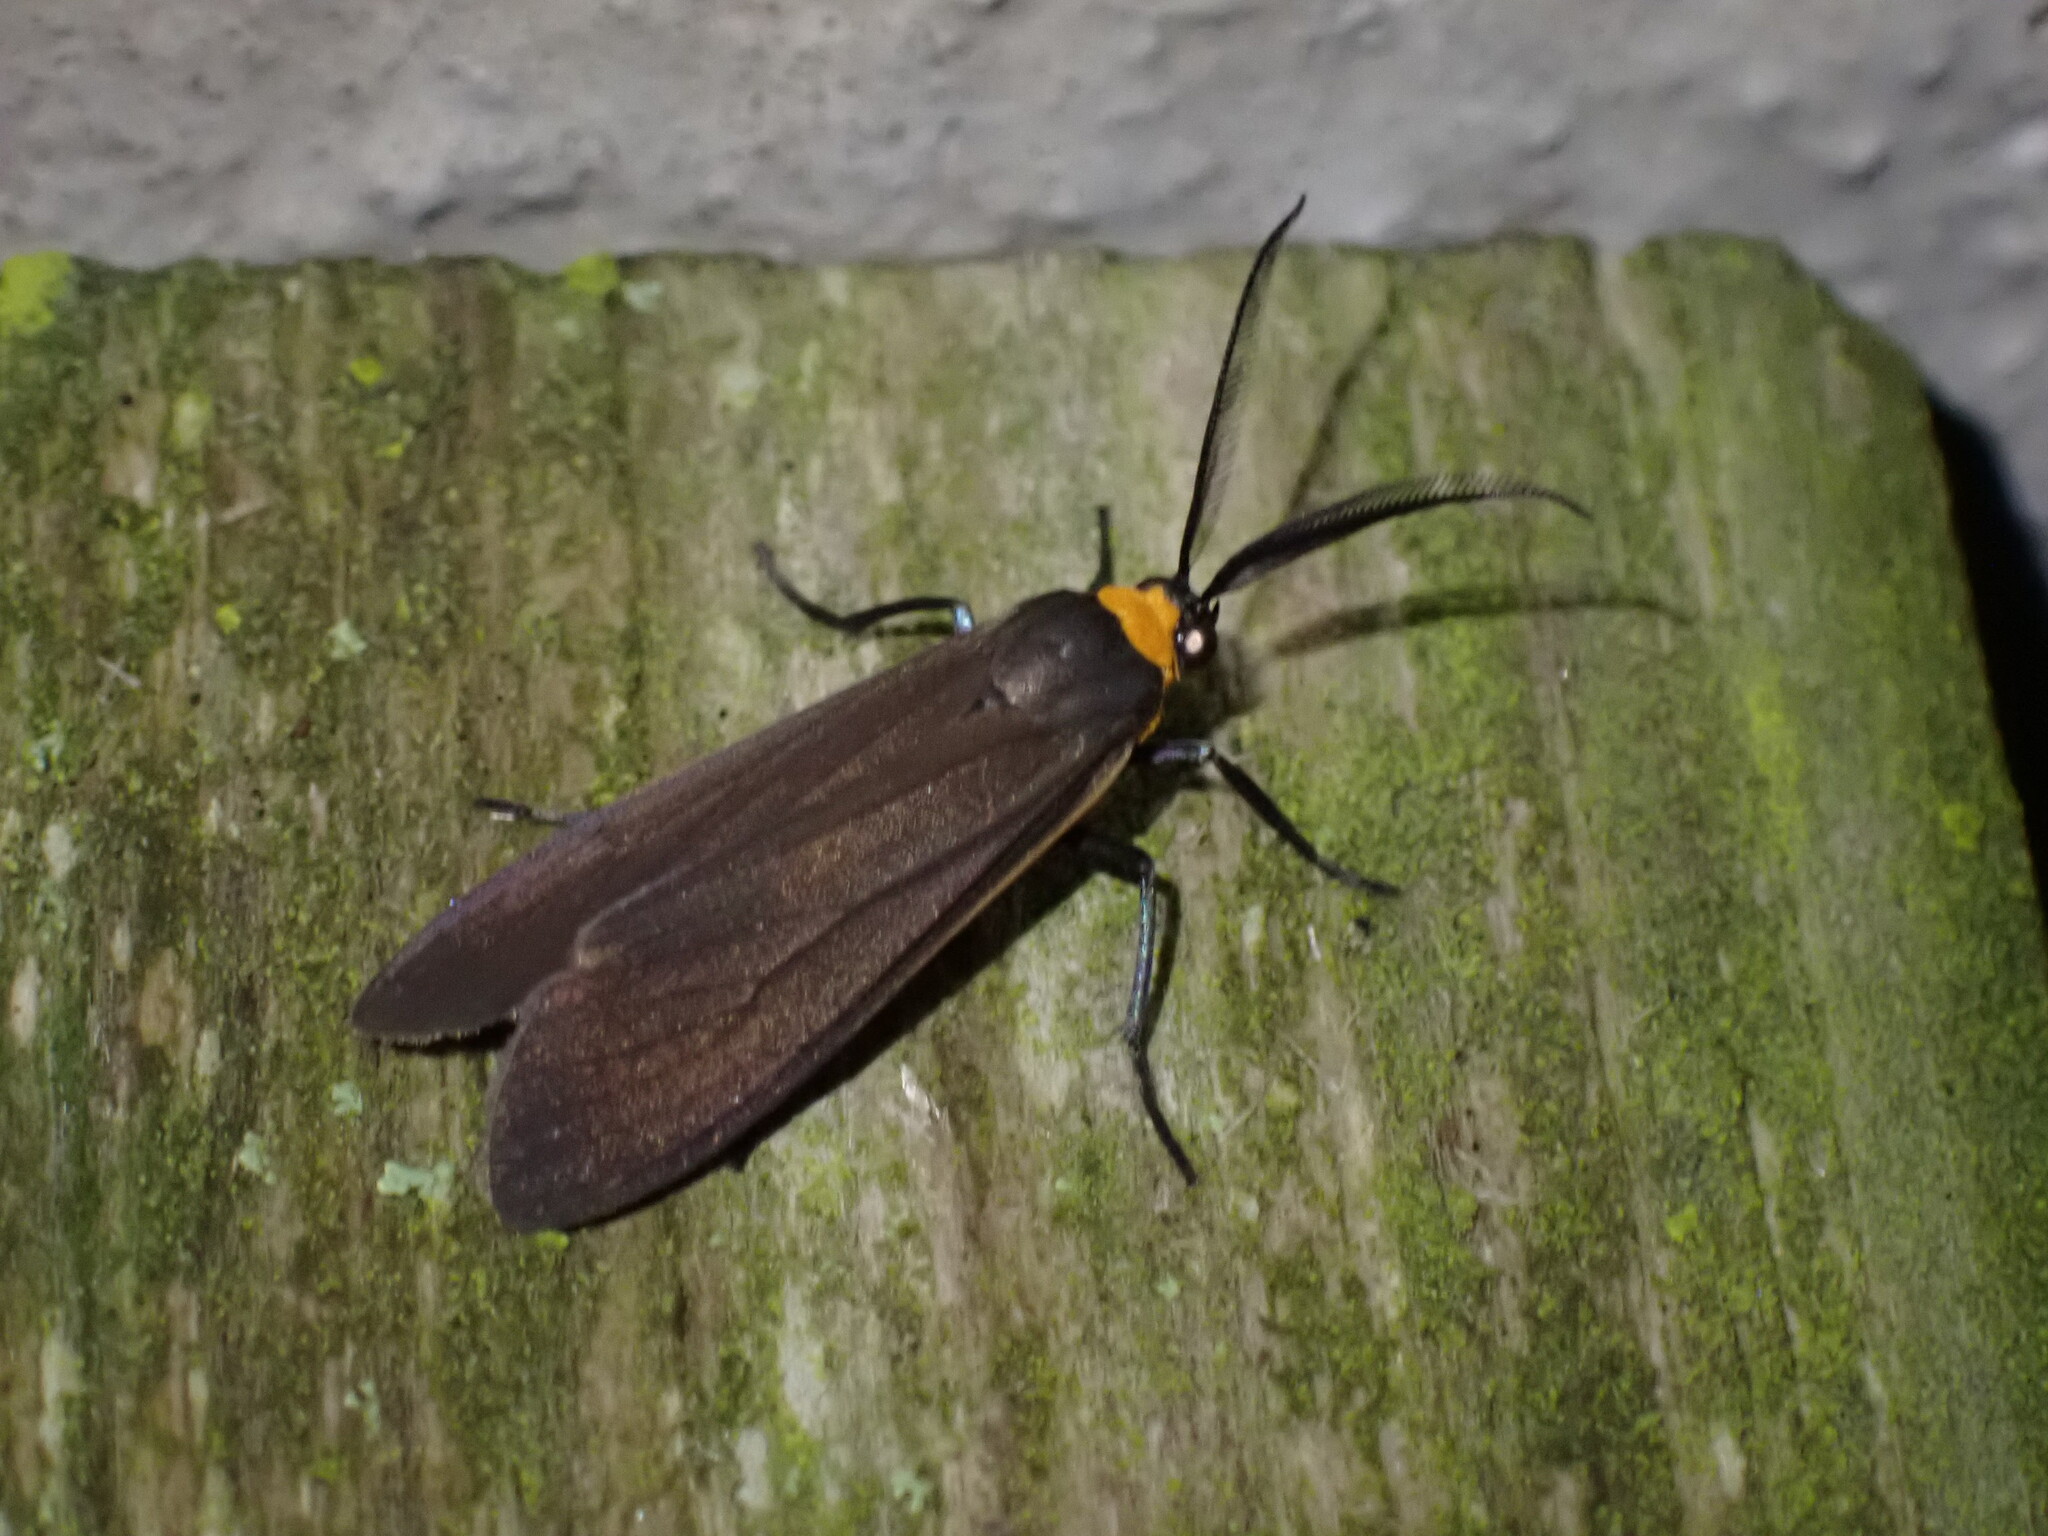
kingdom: Animalia
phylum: Arthropoda
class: Insecta
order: Lepidoptera
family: Erebidae
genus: Cisseps
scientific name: Cisseps fulvicollis
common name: Yellow-collared scape moth
